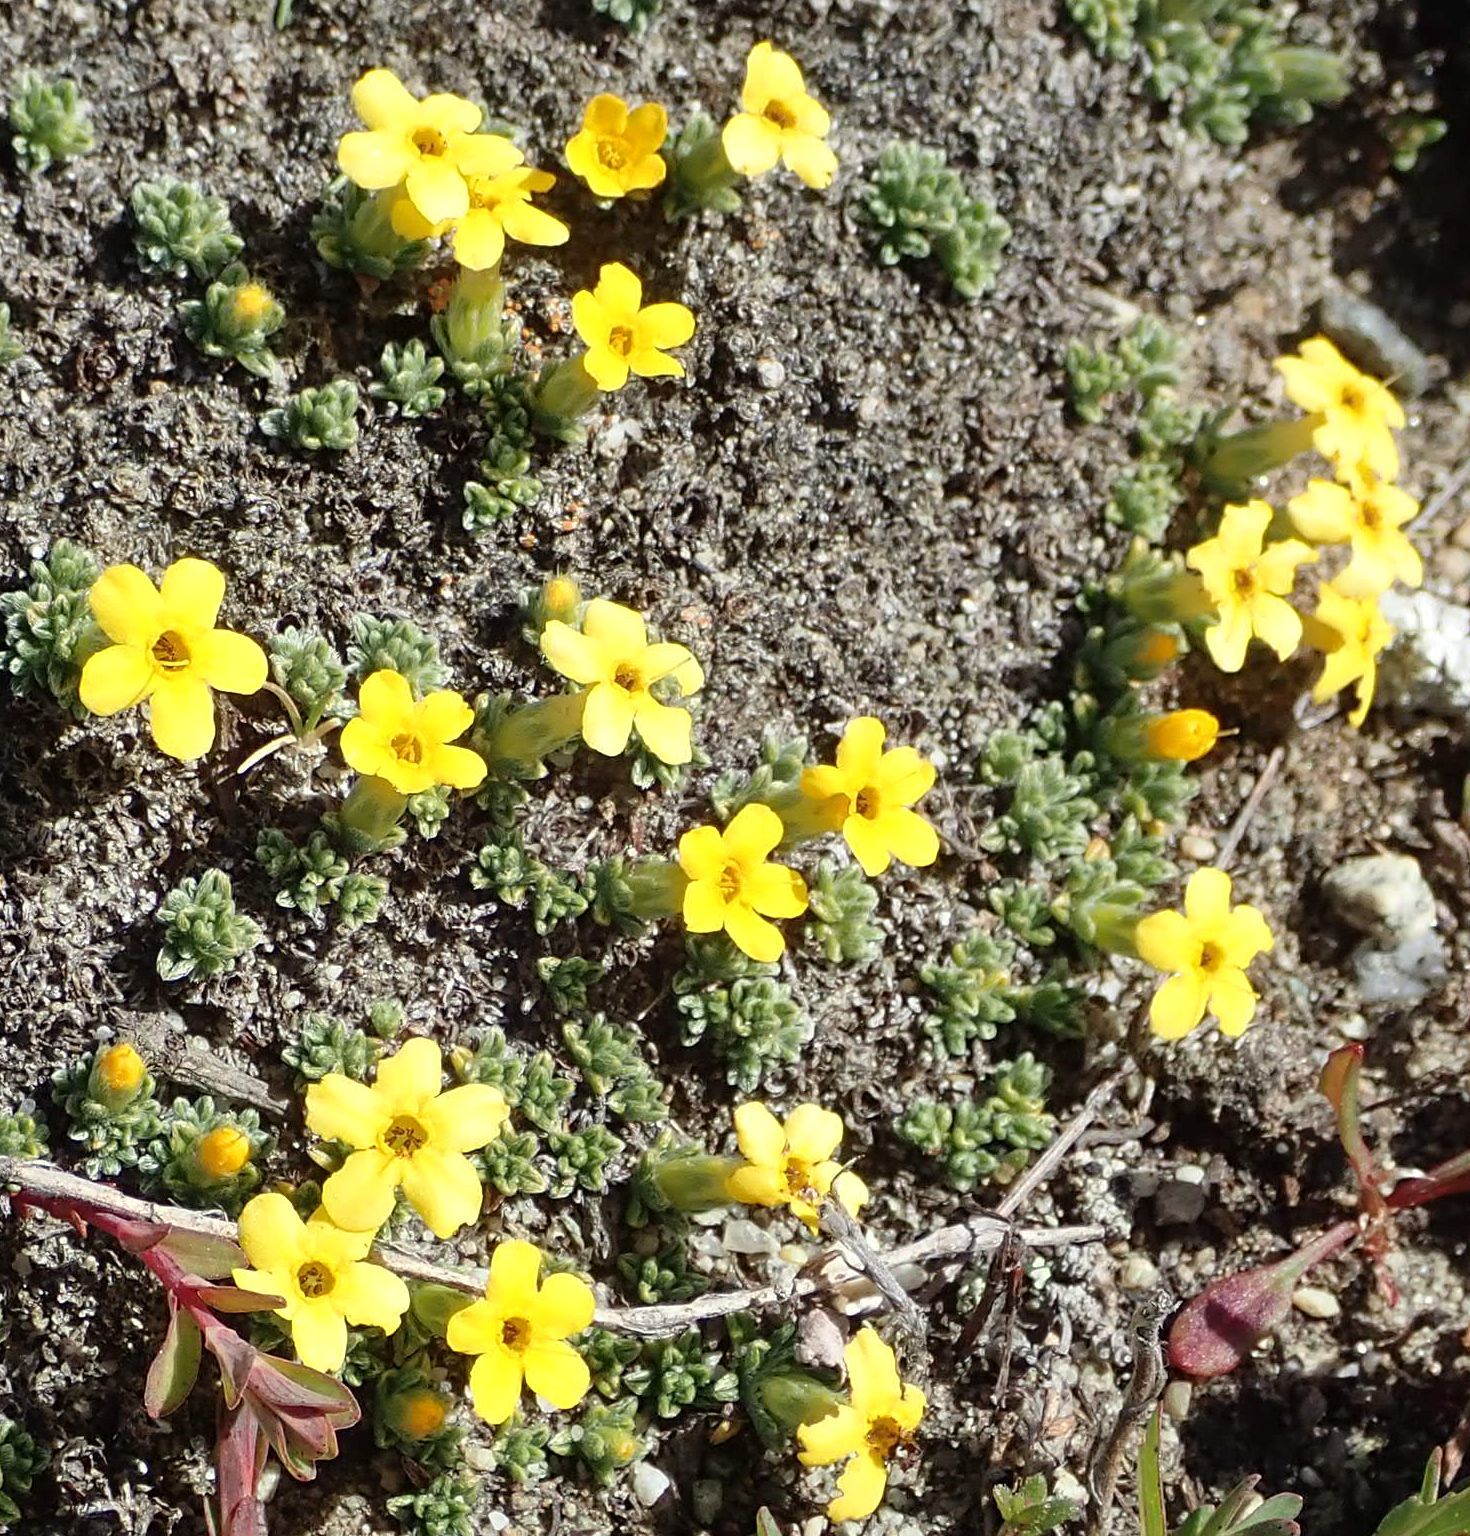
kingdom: Plantae
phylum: Tracheophyta
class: Magnoliopsida
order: Boraginales
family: Boraginaceae
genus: Myosotis
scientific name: Myosotis uniflora
